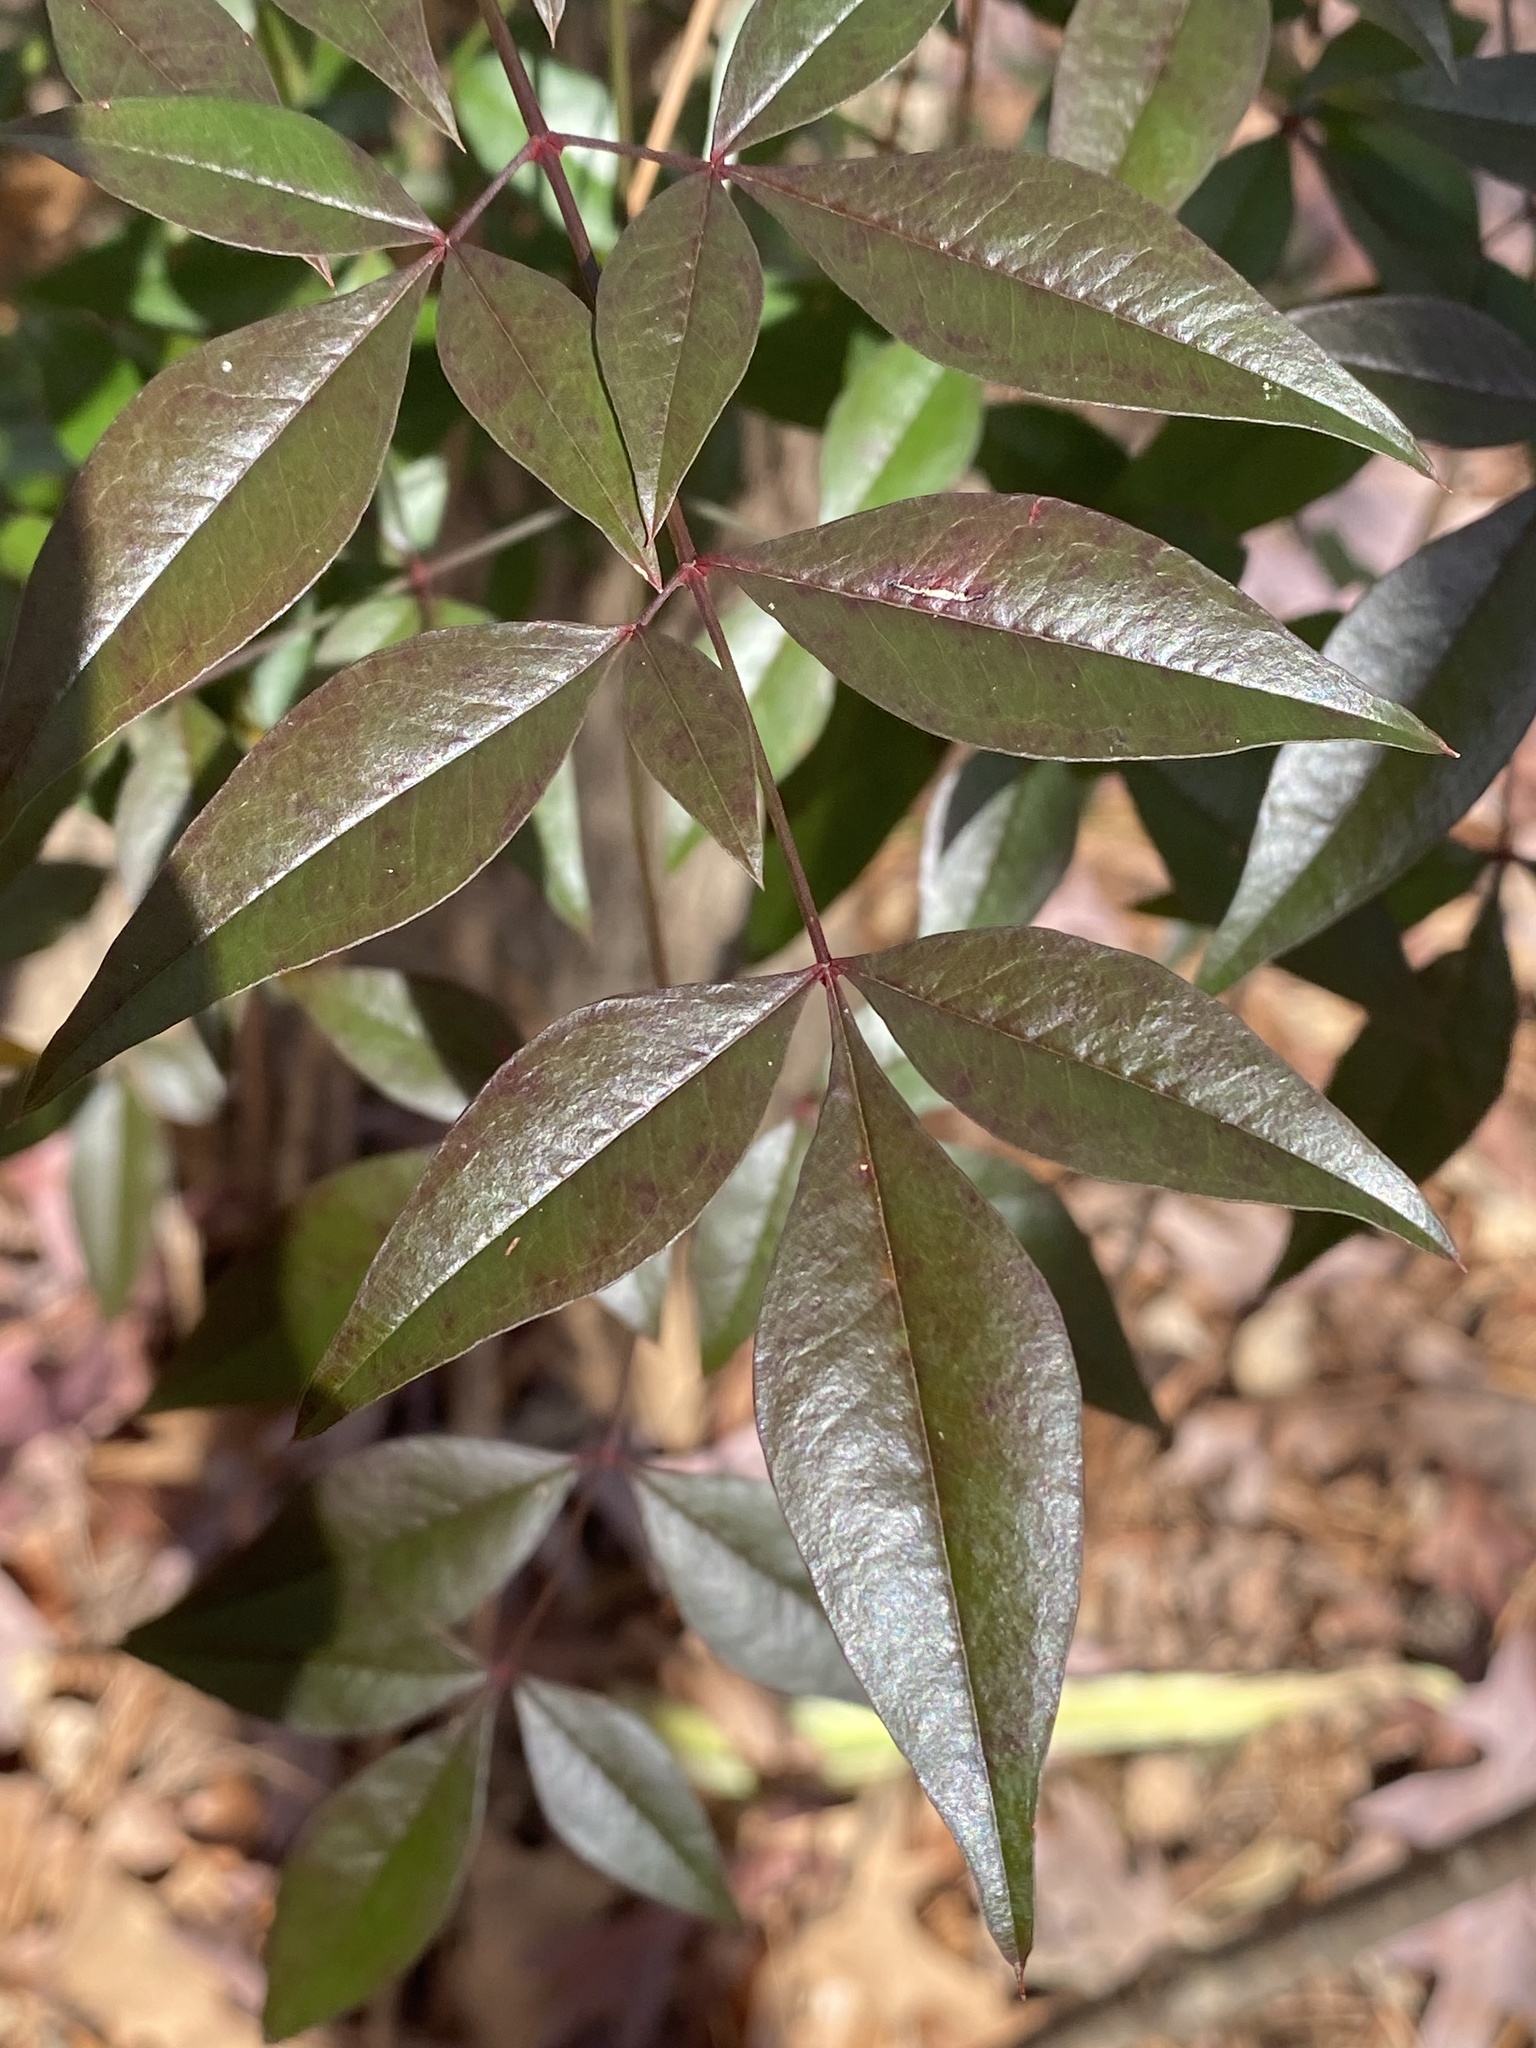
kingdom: Plantae
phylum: Tracheophyta
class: Magnoliopsida
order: Ranunculales
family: Berberidaceae
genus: Nandina
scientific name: Nandina domestica
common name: Sacred bamboo
